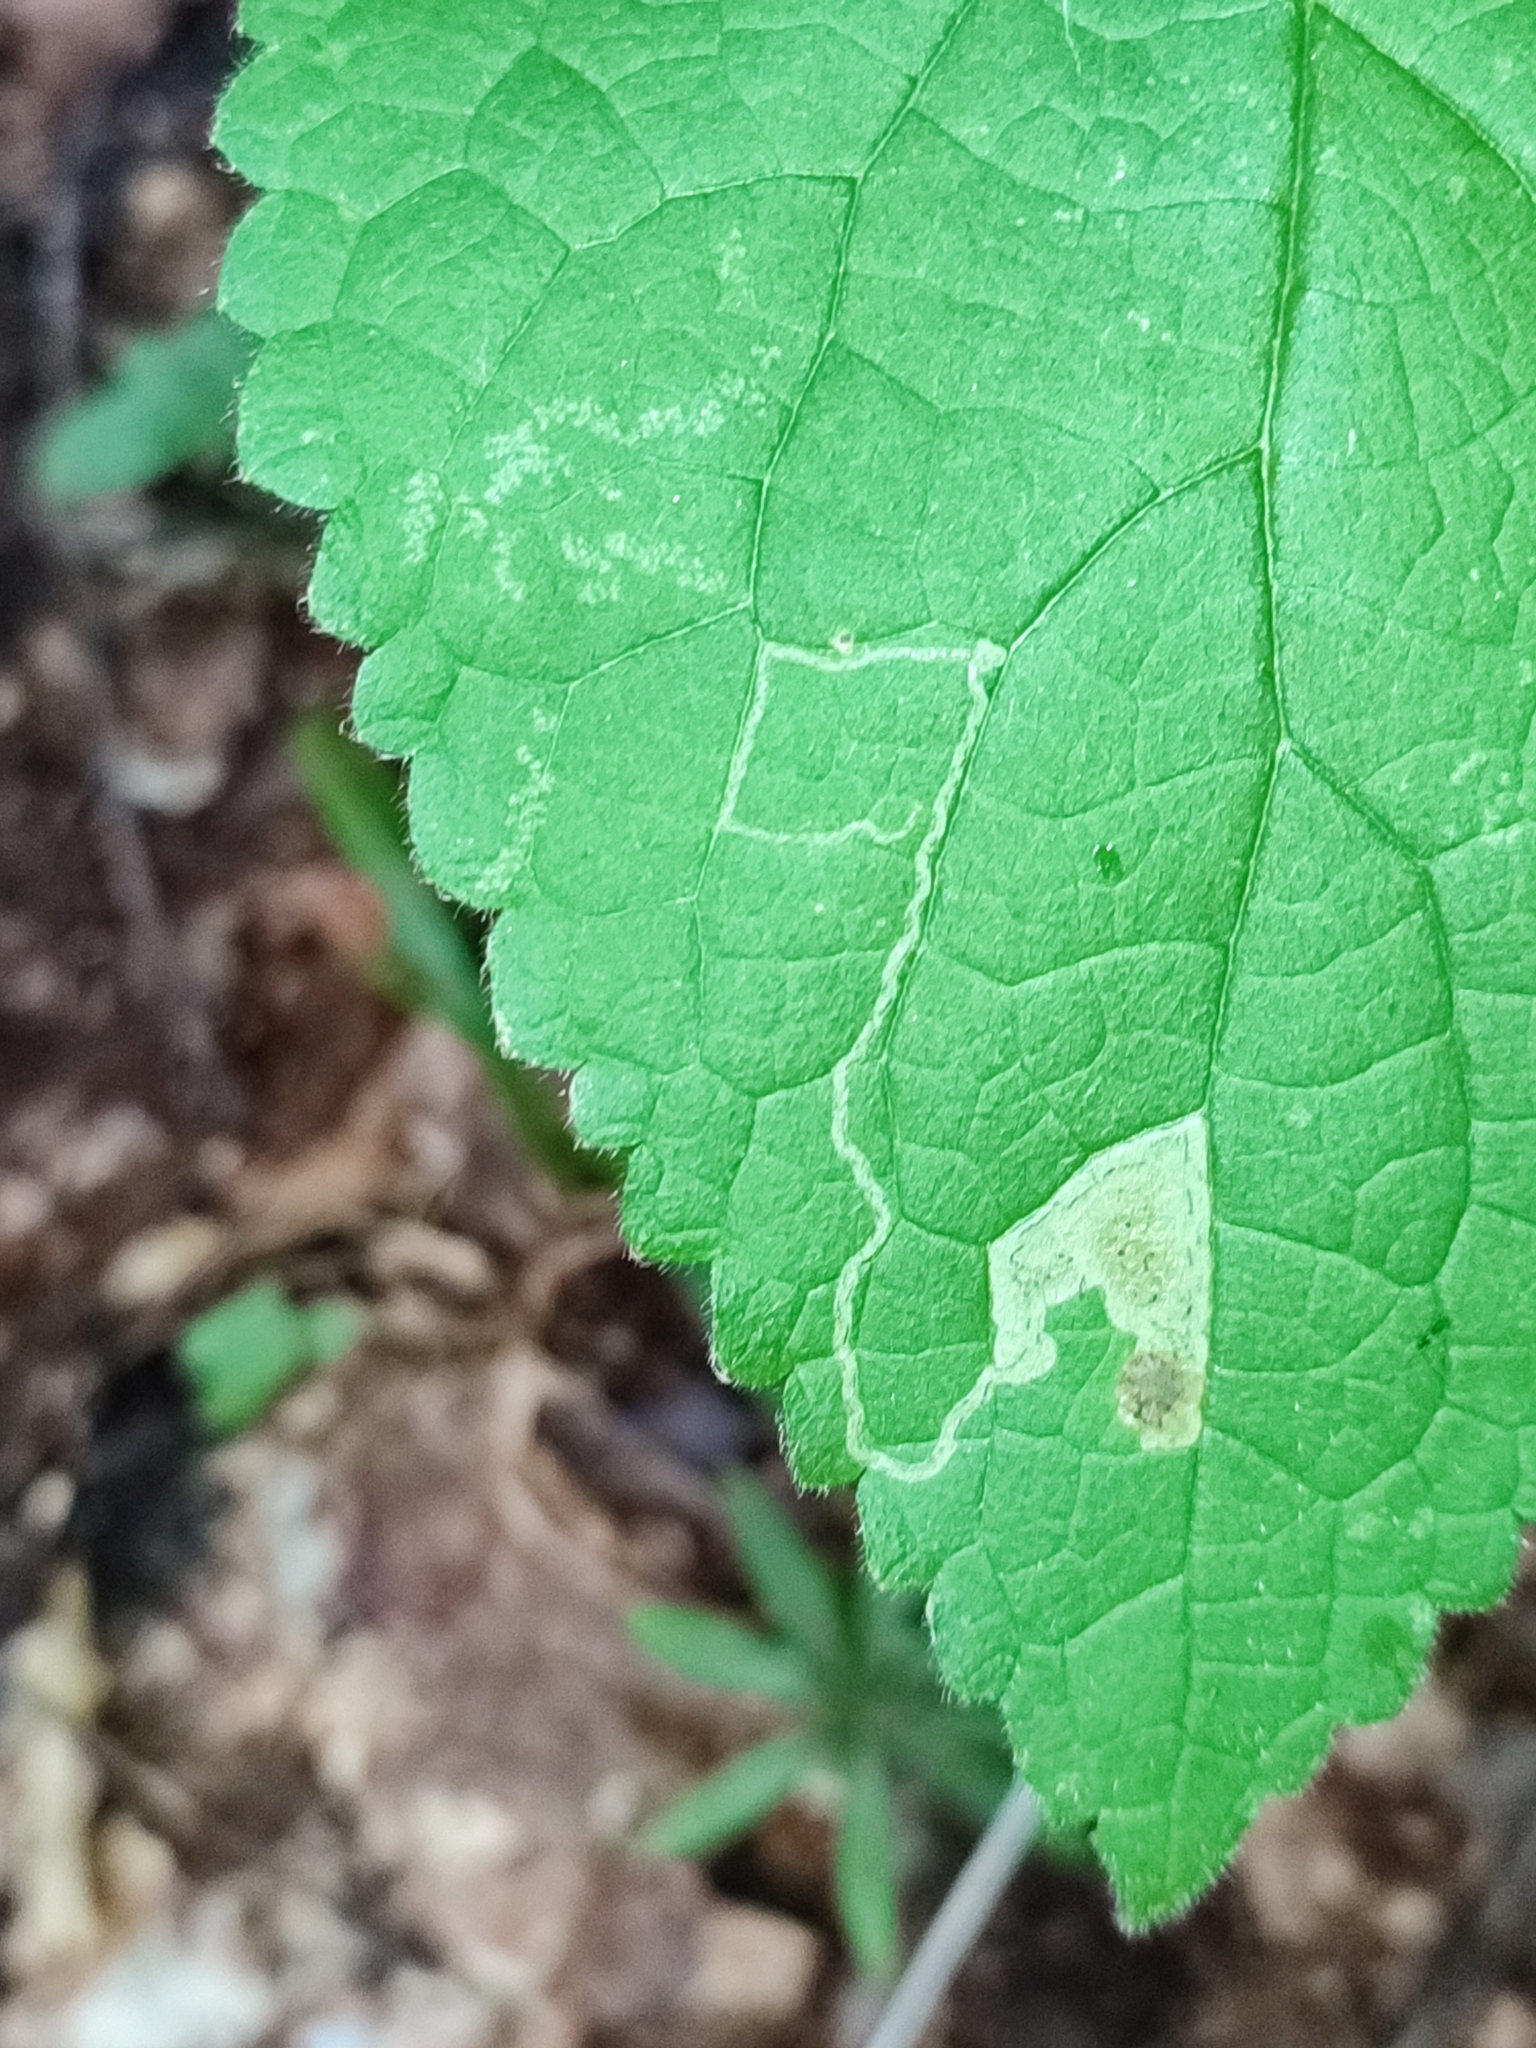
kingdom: Plantae
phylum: Tracheophyta
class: Magnoliopsida
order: Lamiales
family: Lamiaceae
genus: Stachys
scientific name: Stachys sylvatica
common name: Hedge woundwort
